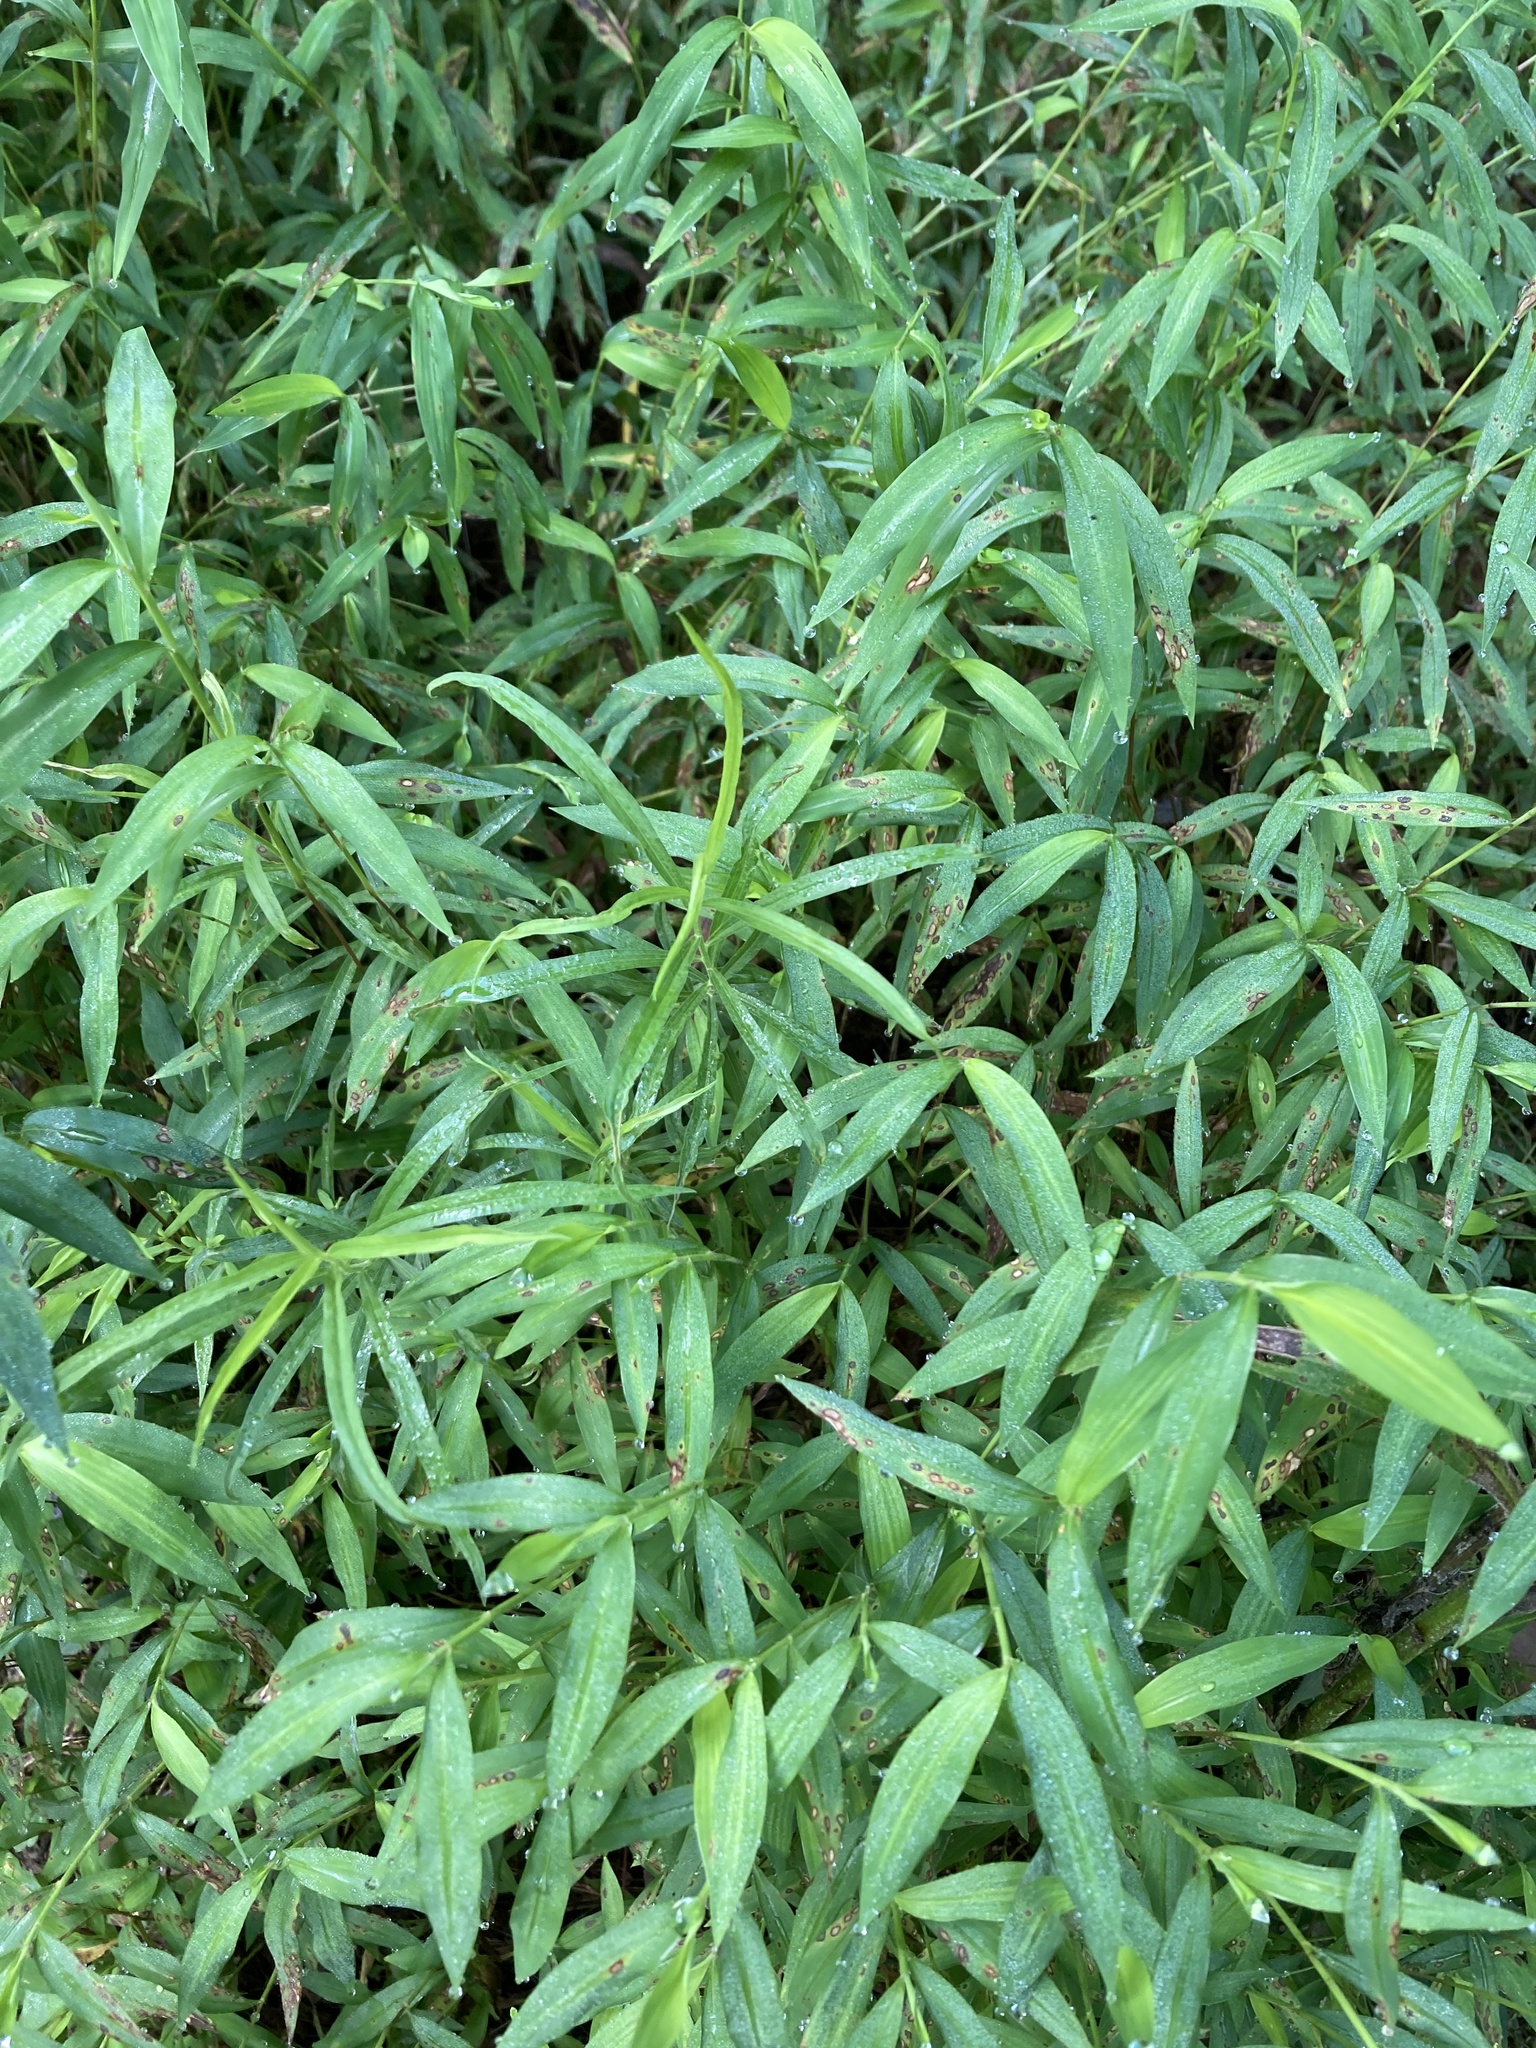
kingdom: Plantae
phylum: Tracheophyta
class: Liliopsida
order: Poales
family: Poaceae
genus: Microstegium
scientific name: Microstegium vimineum
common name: Japanese stiltgrass
